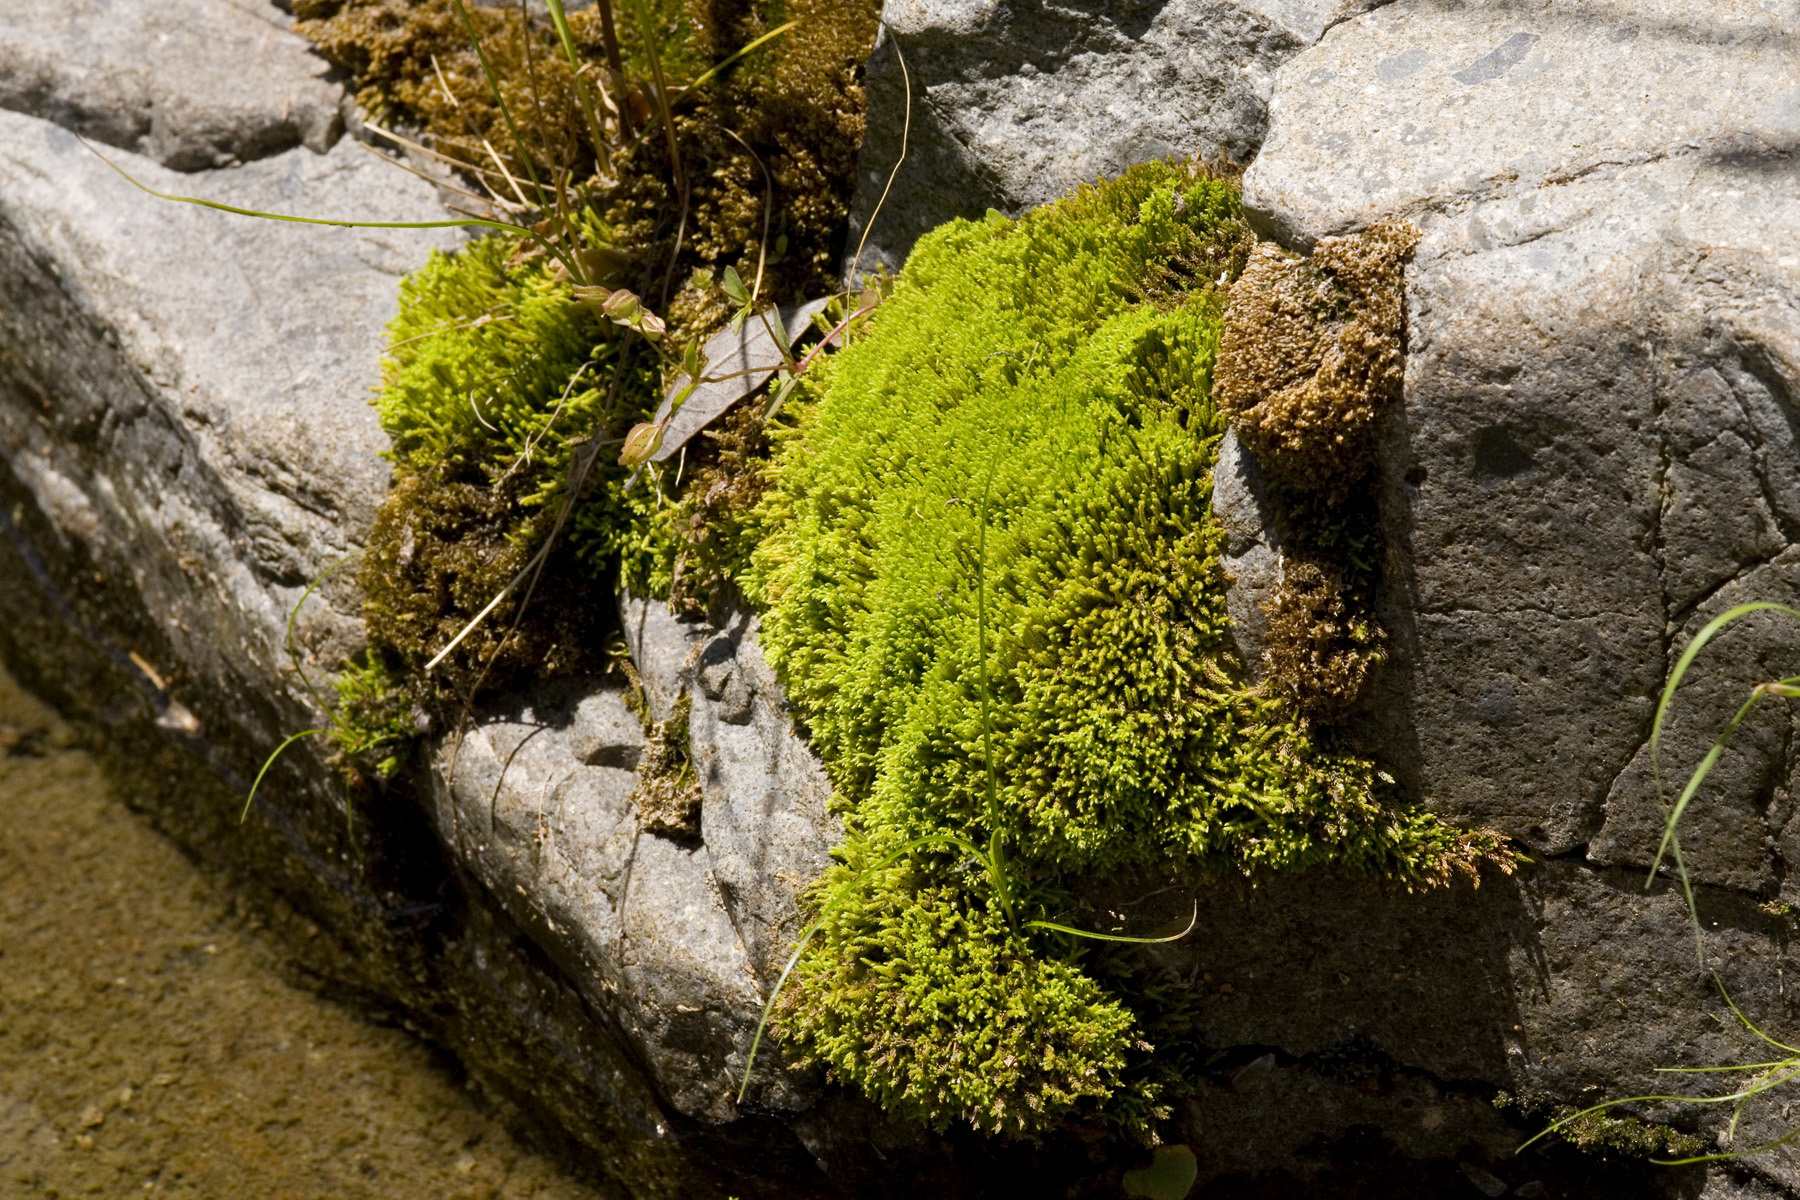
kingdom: Plantae
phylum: Bryophyta
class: Bryopsida
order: Bartramiales
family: Bartramiaceae
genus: Philonotis
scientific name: Philonotis fontana
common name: Fountain apple-moss
